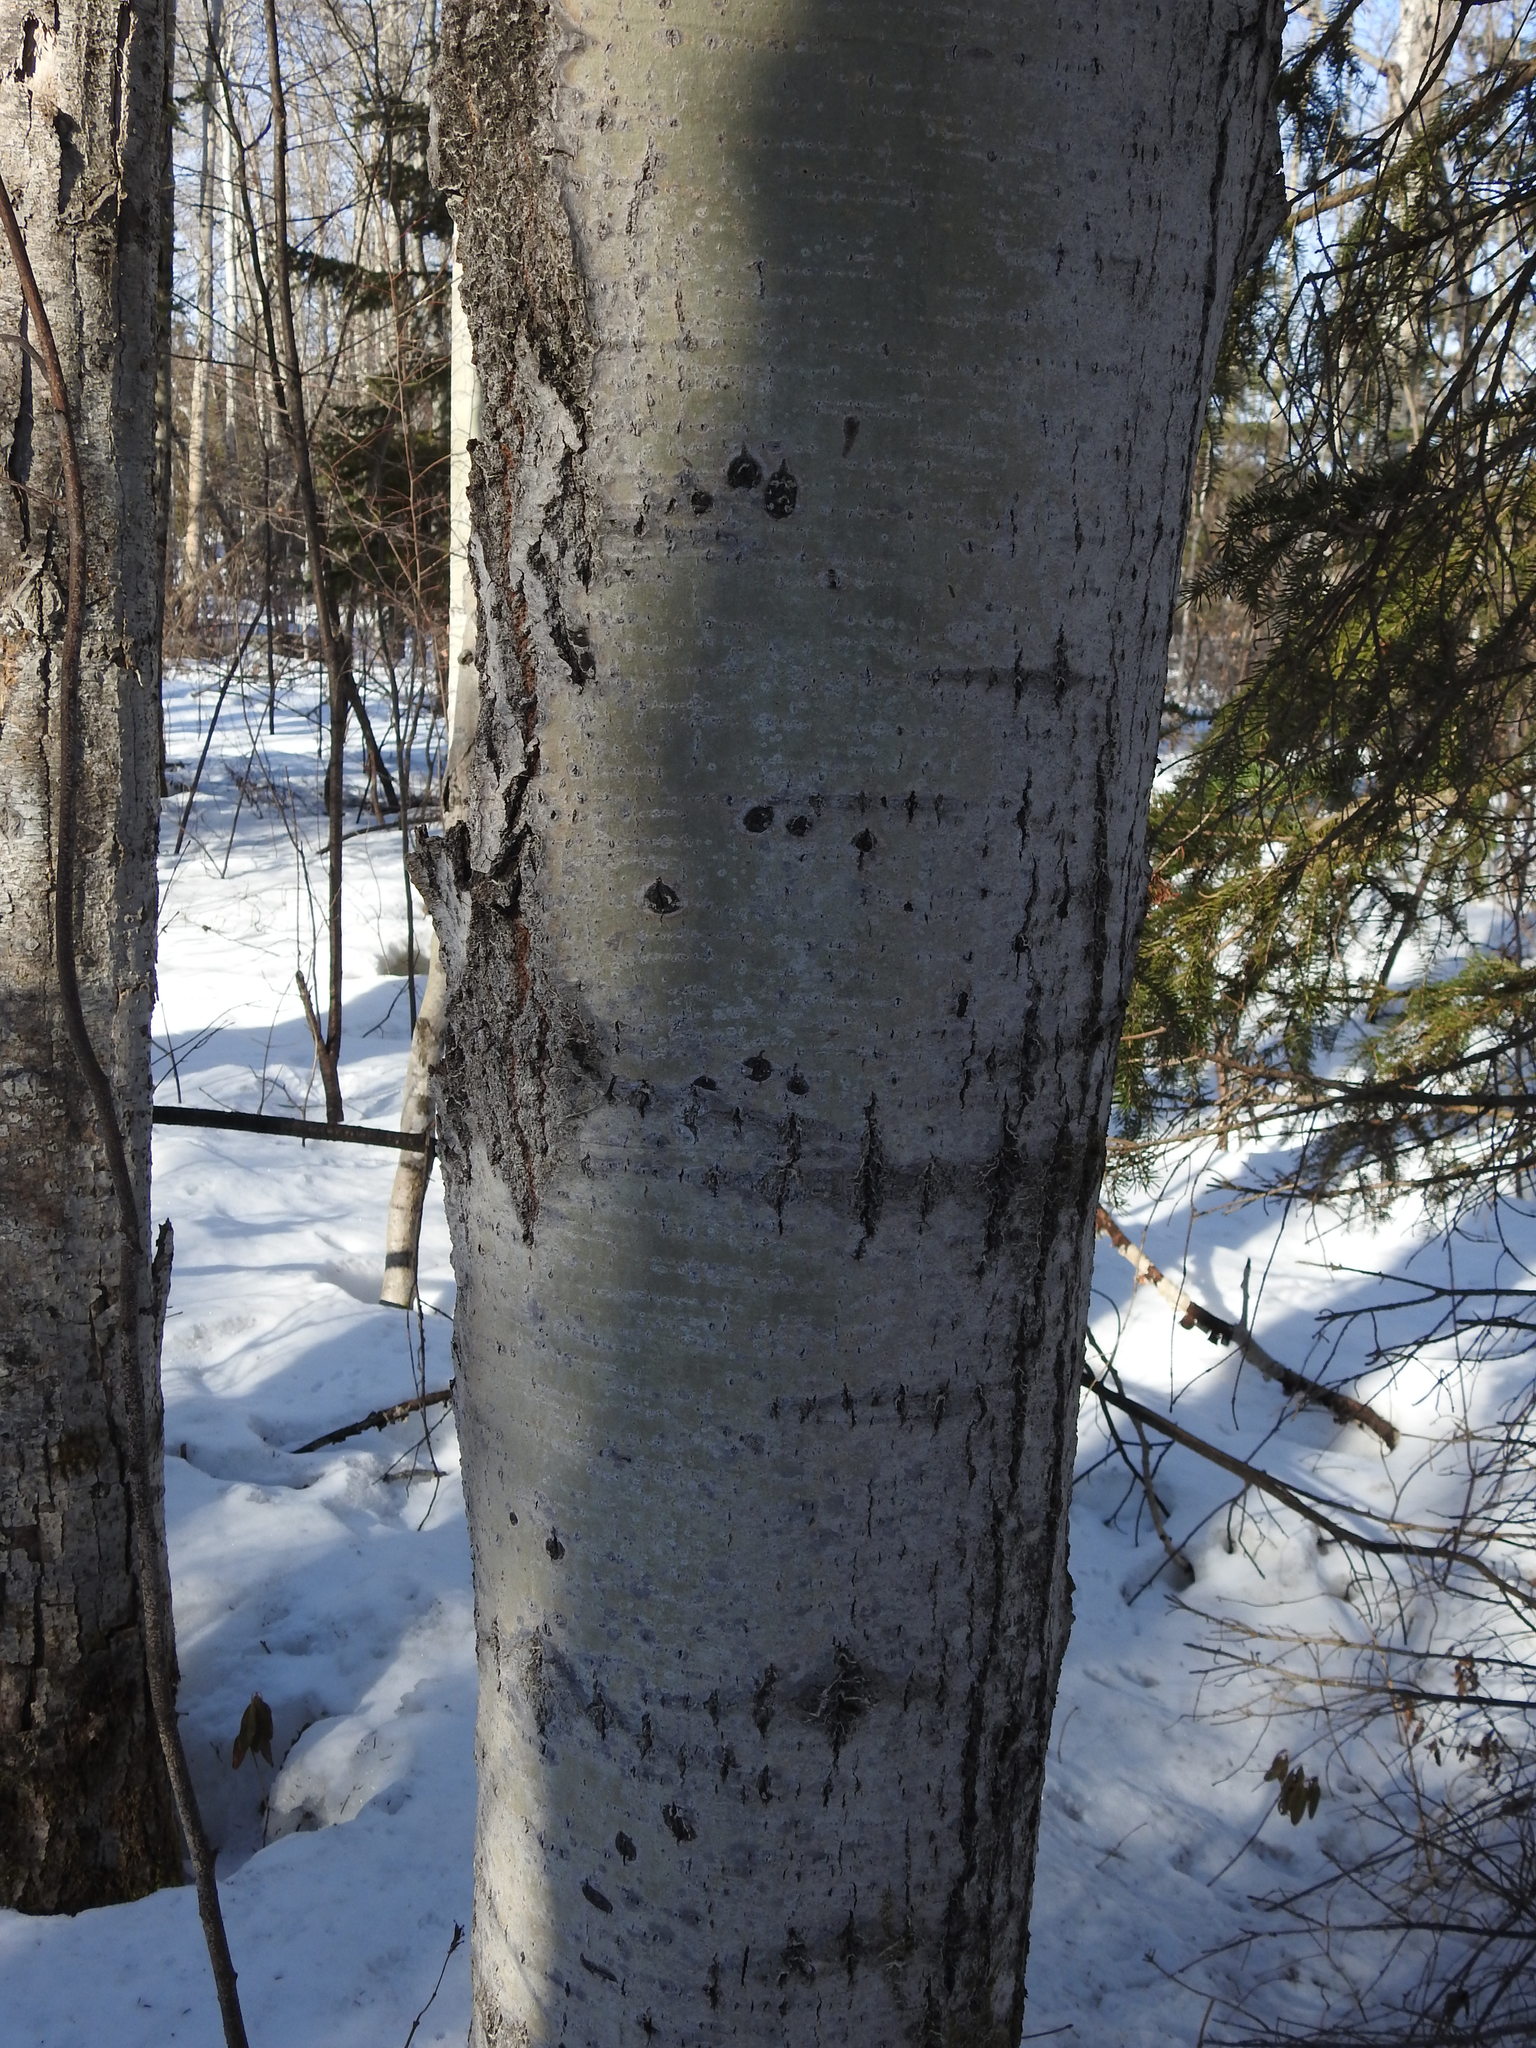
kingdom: Plantae
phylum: Tracheophyta
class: Magnoliopsida
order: Malpighiales
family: Salicaceae
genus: Populus
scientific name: Populus tremuloides
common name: Quaking aspen
